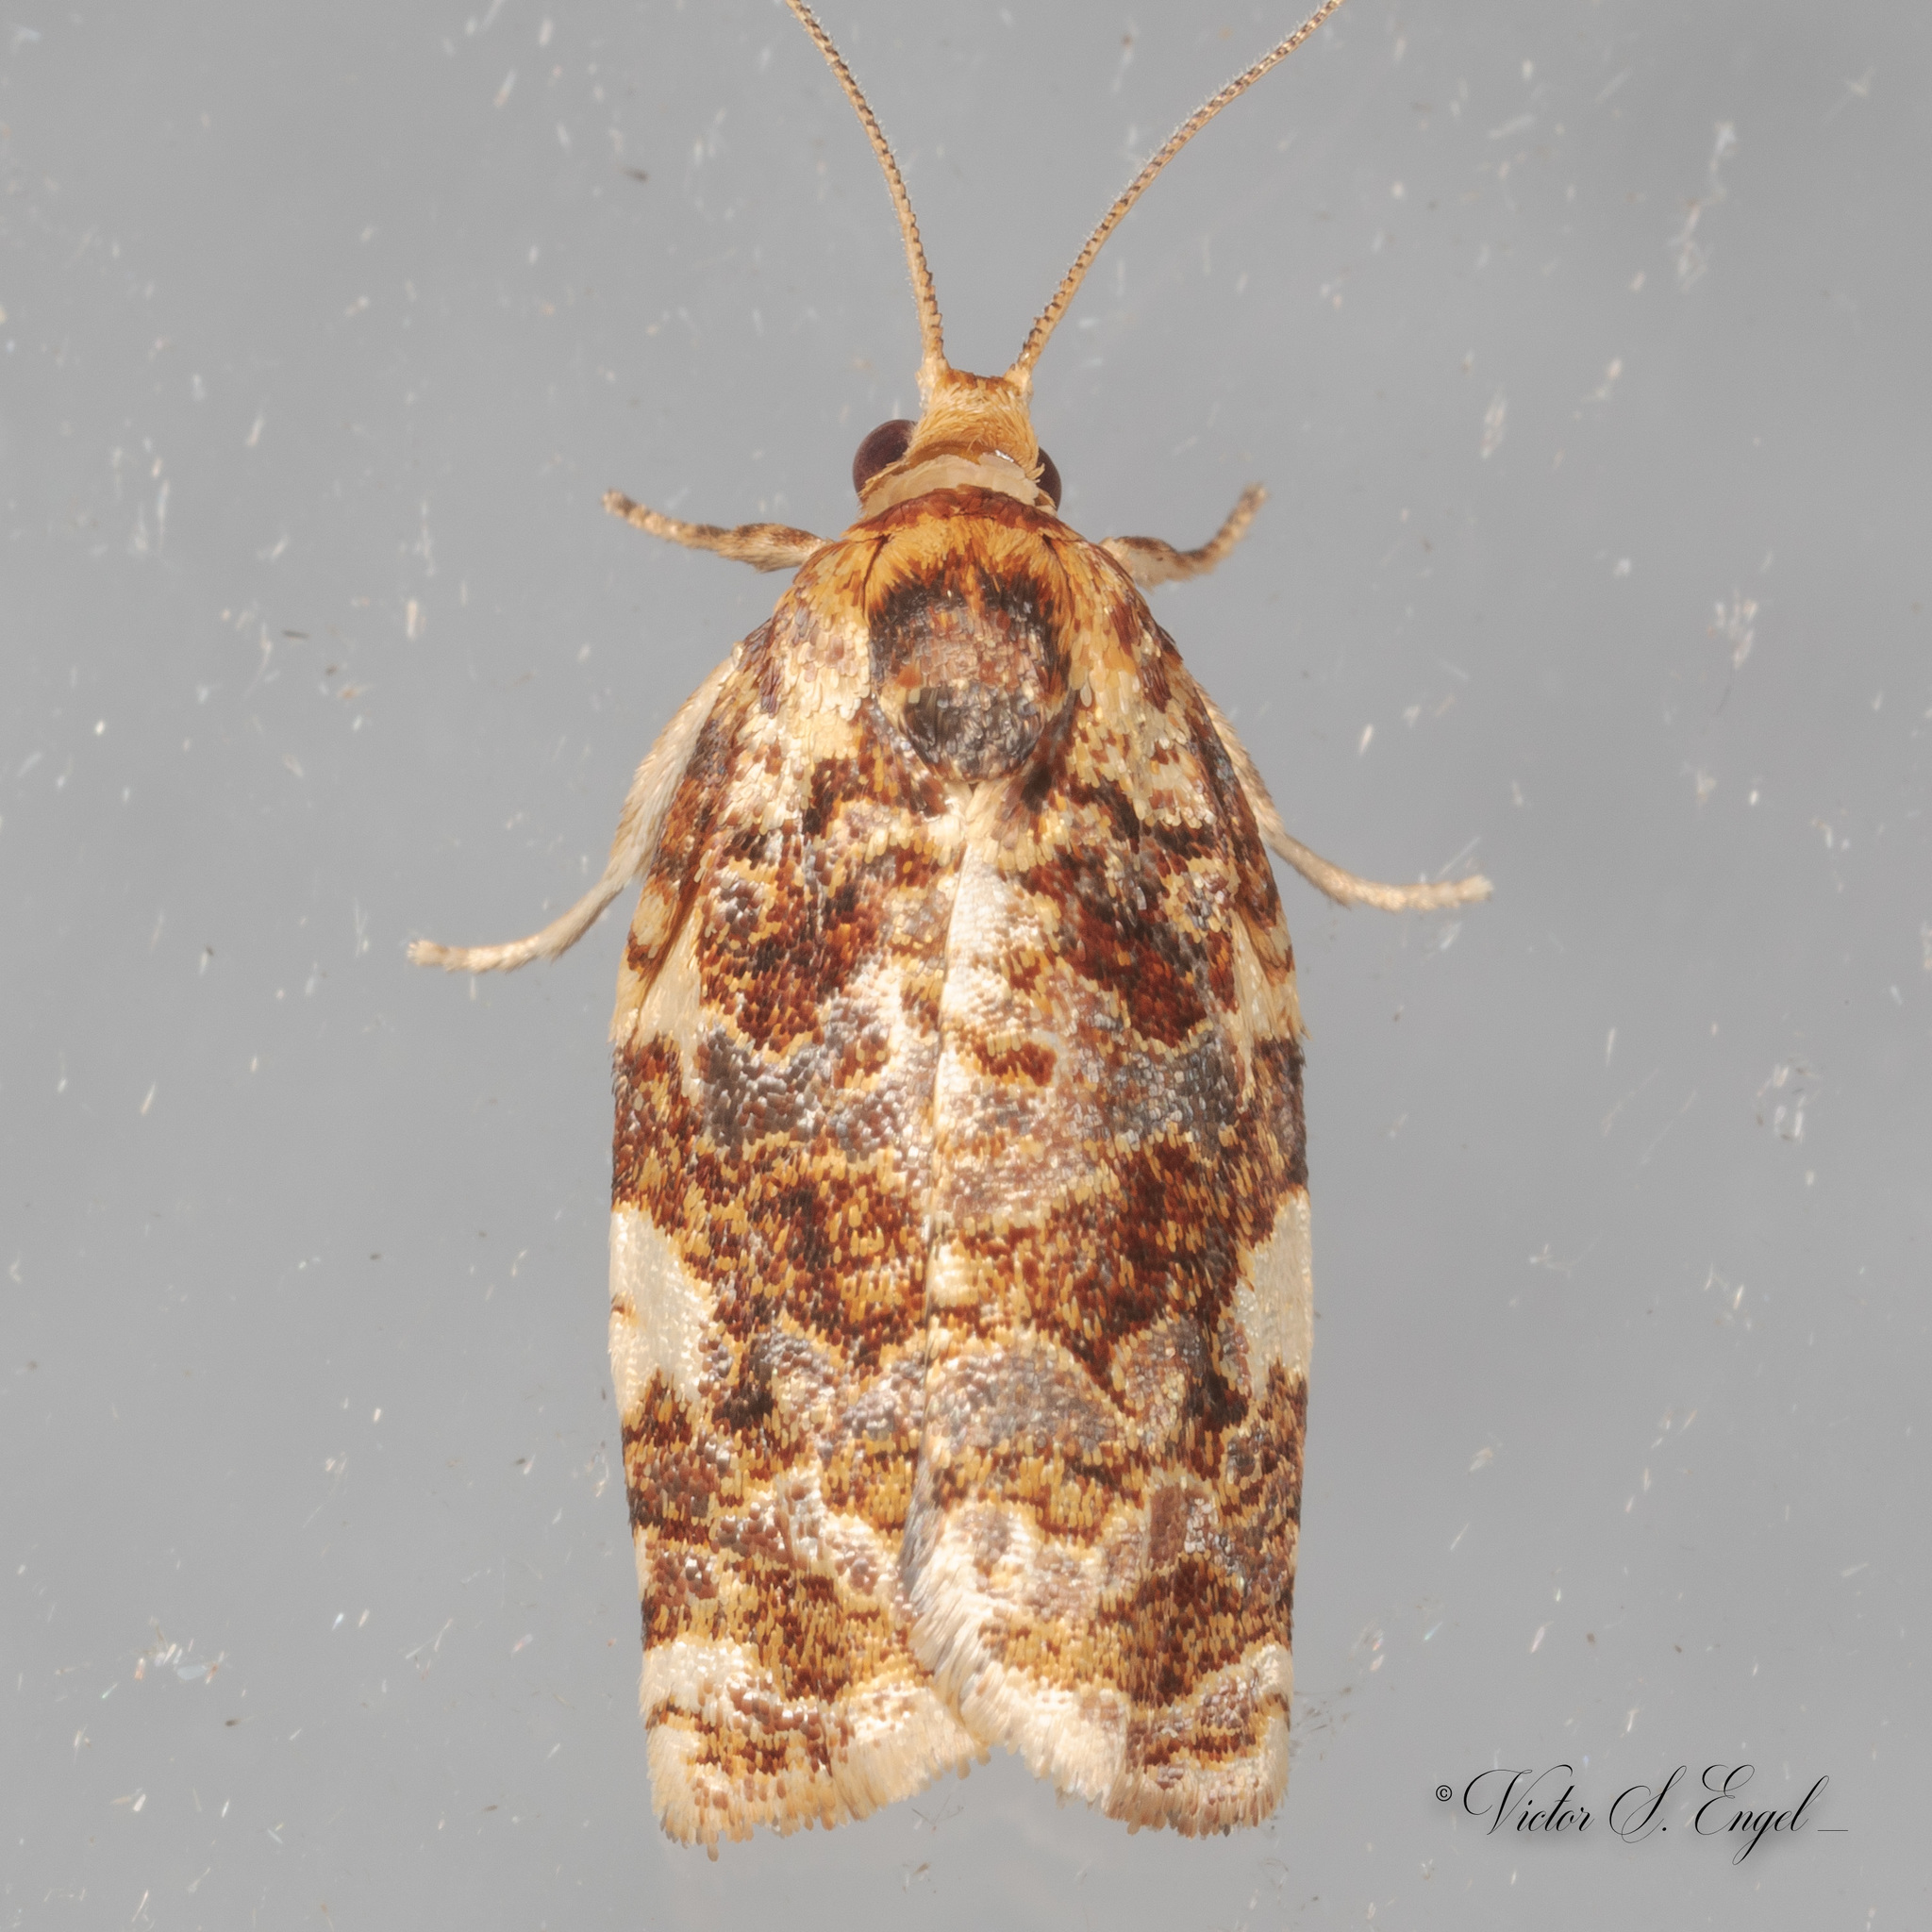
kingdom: Animalia
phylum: Arthropoda
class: Insecta
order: Lepidoptera
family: Tortricidae
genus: Archips
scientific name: Archips argyrospila
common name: Fruit-tree leafroller moth
